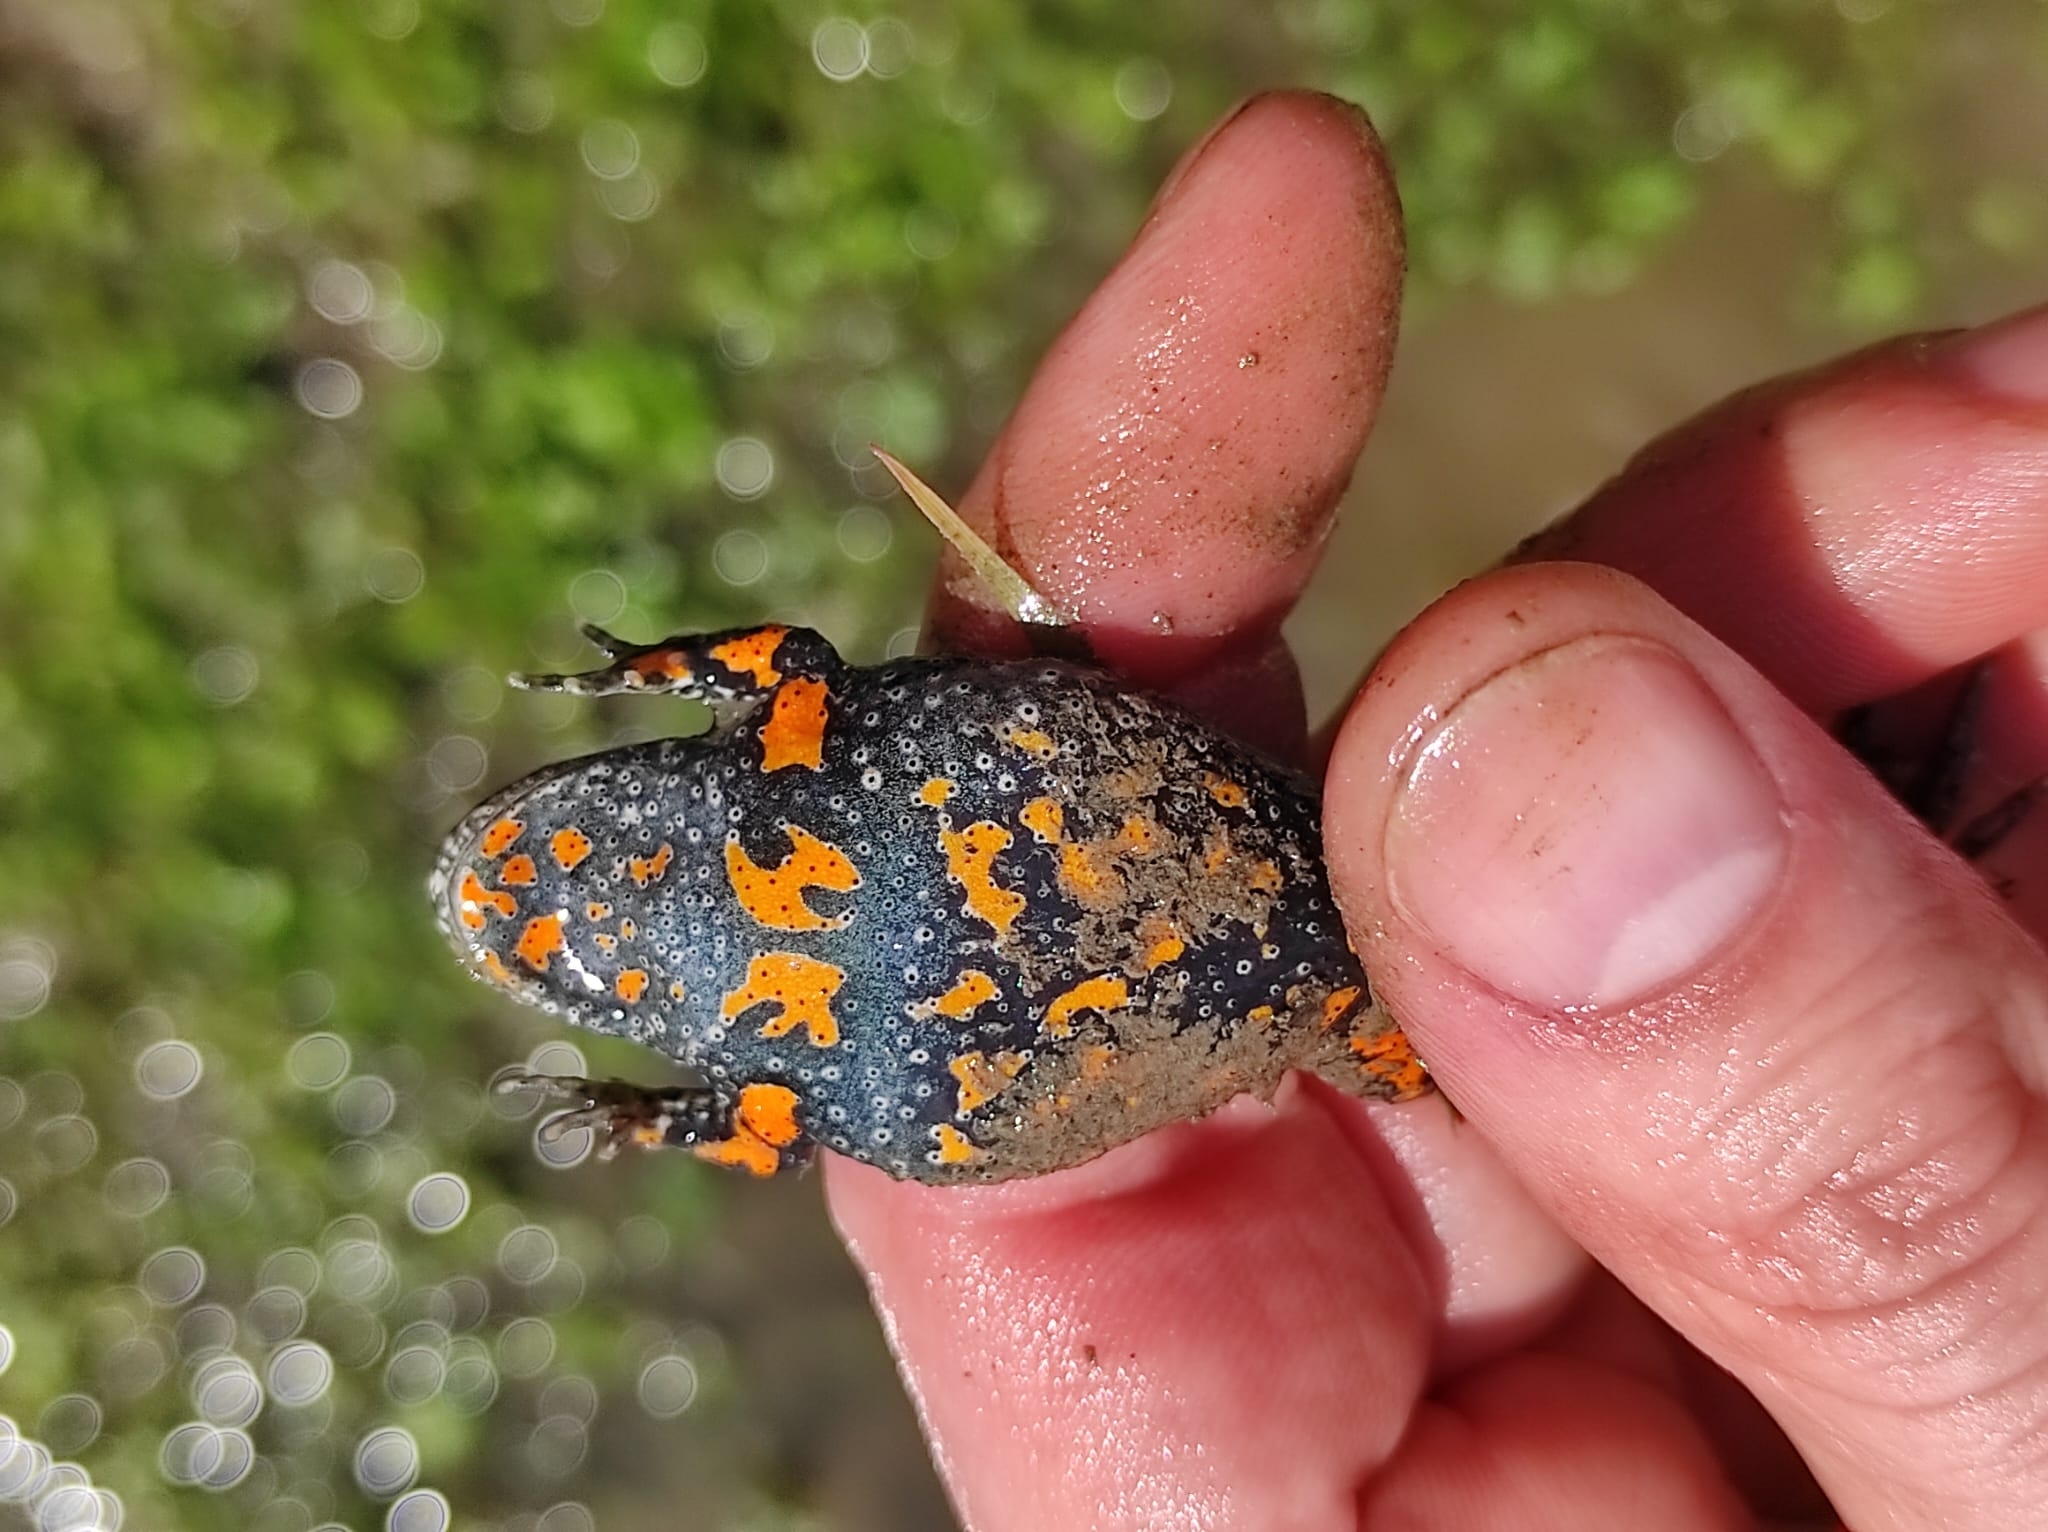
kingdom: Animalia
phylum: Chordata
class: Amphibia
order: Anura
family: Bombinatoridae
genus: Bombina
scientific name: Bombina bombina
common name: Fire-bellied toad
